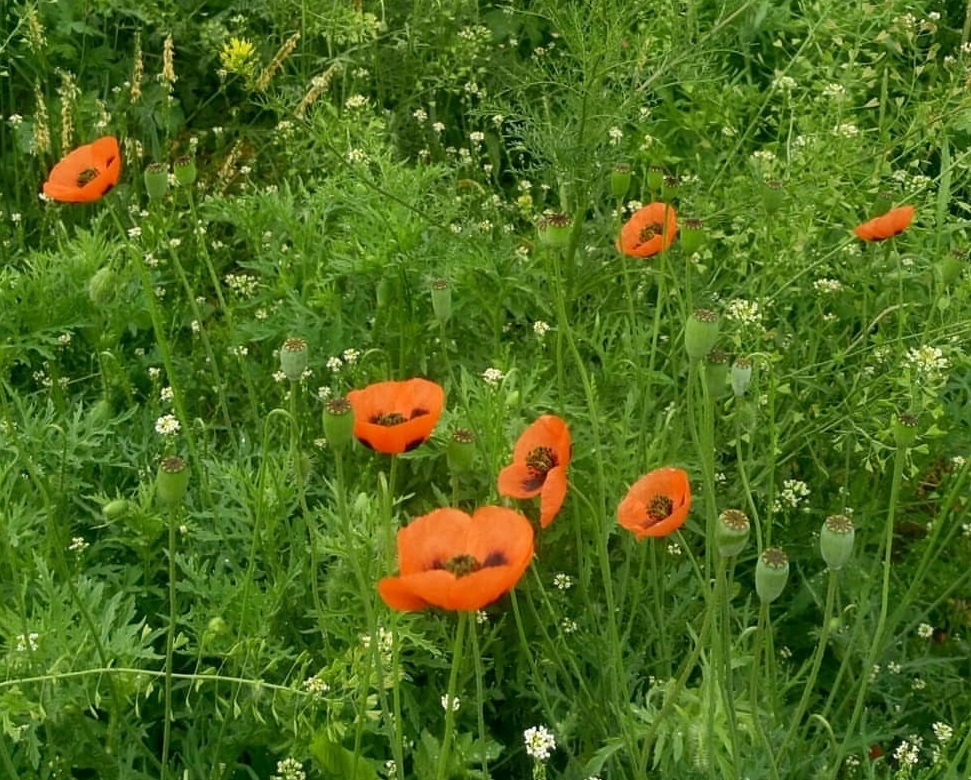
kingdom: Plantae
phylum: Tracheophyta
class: Magnoliopsida
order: Ranunculales
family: Papaveraceae
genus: Papaver
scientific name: Papaver dubium
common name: Long-headed poppy
